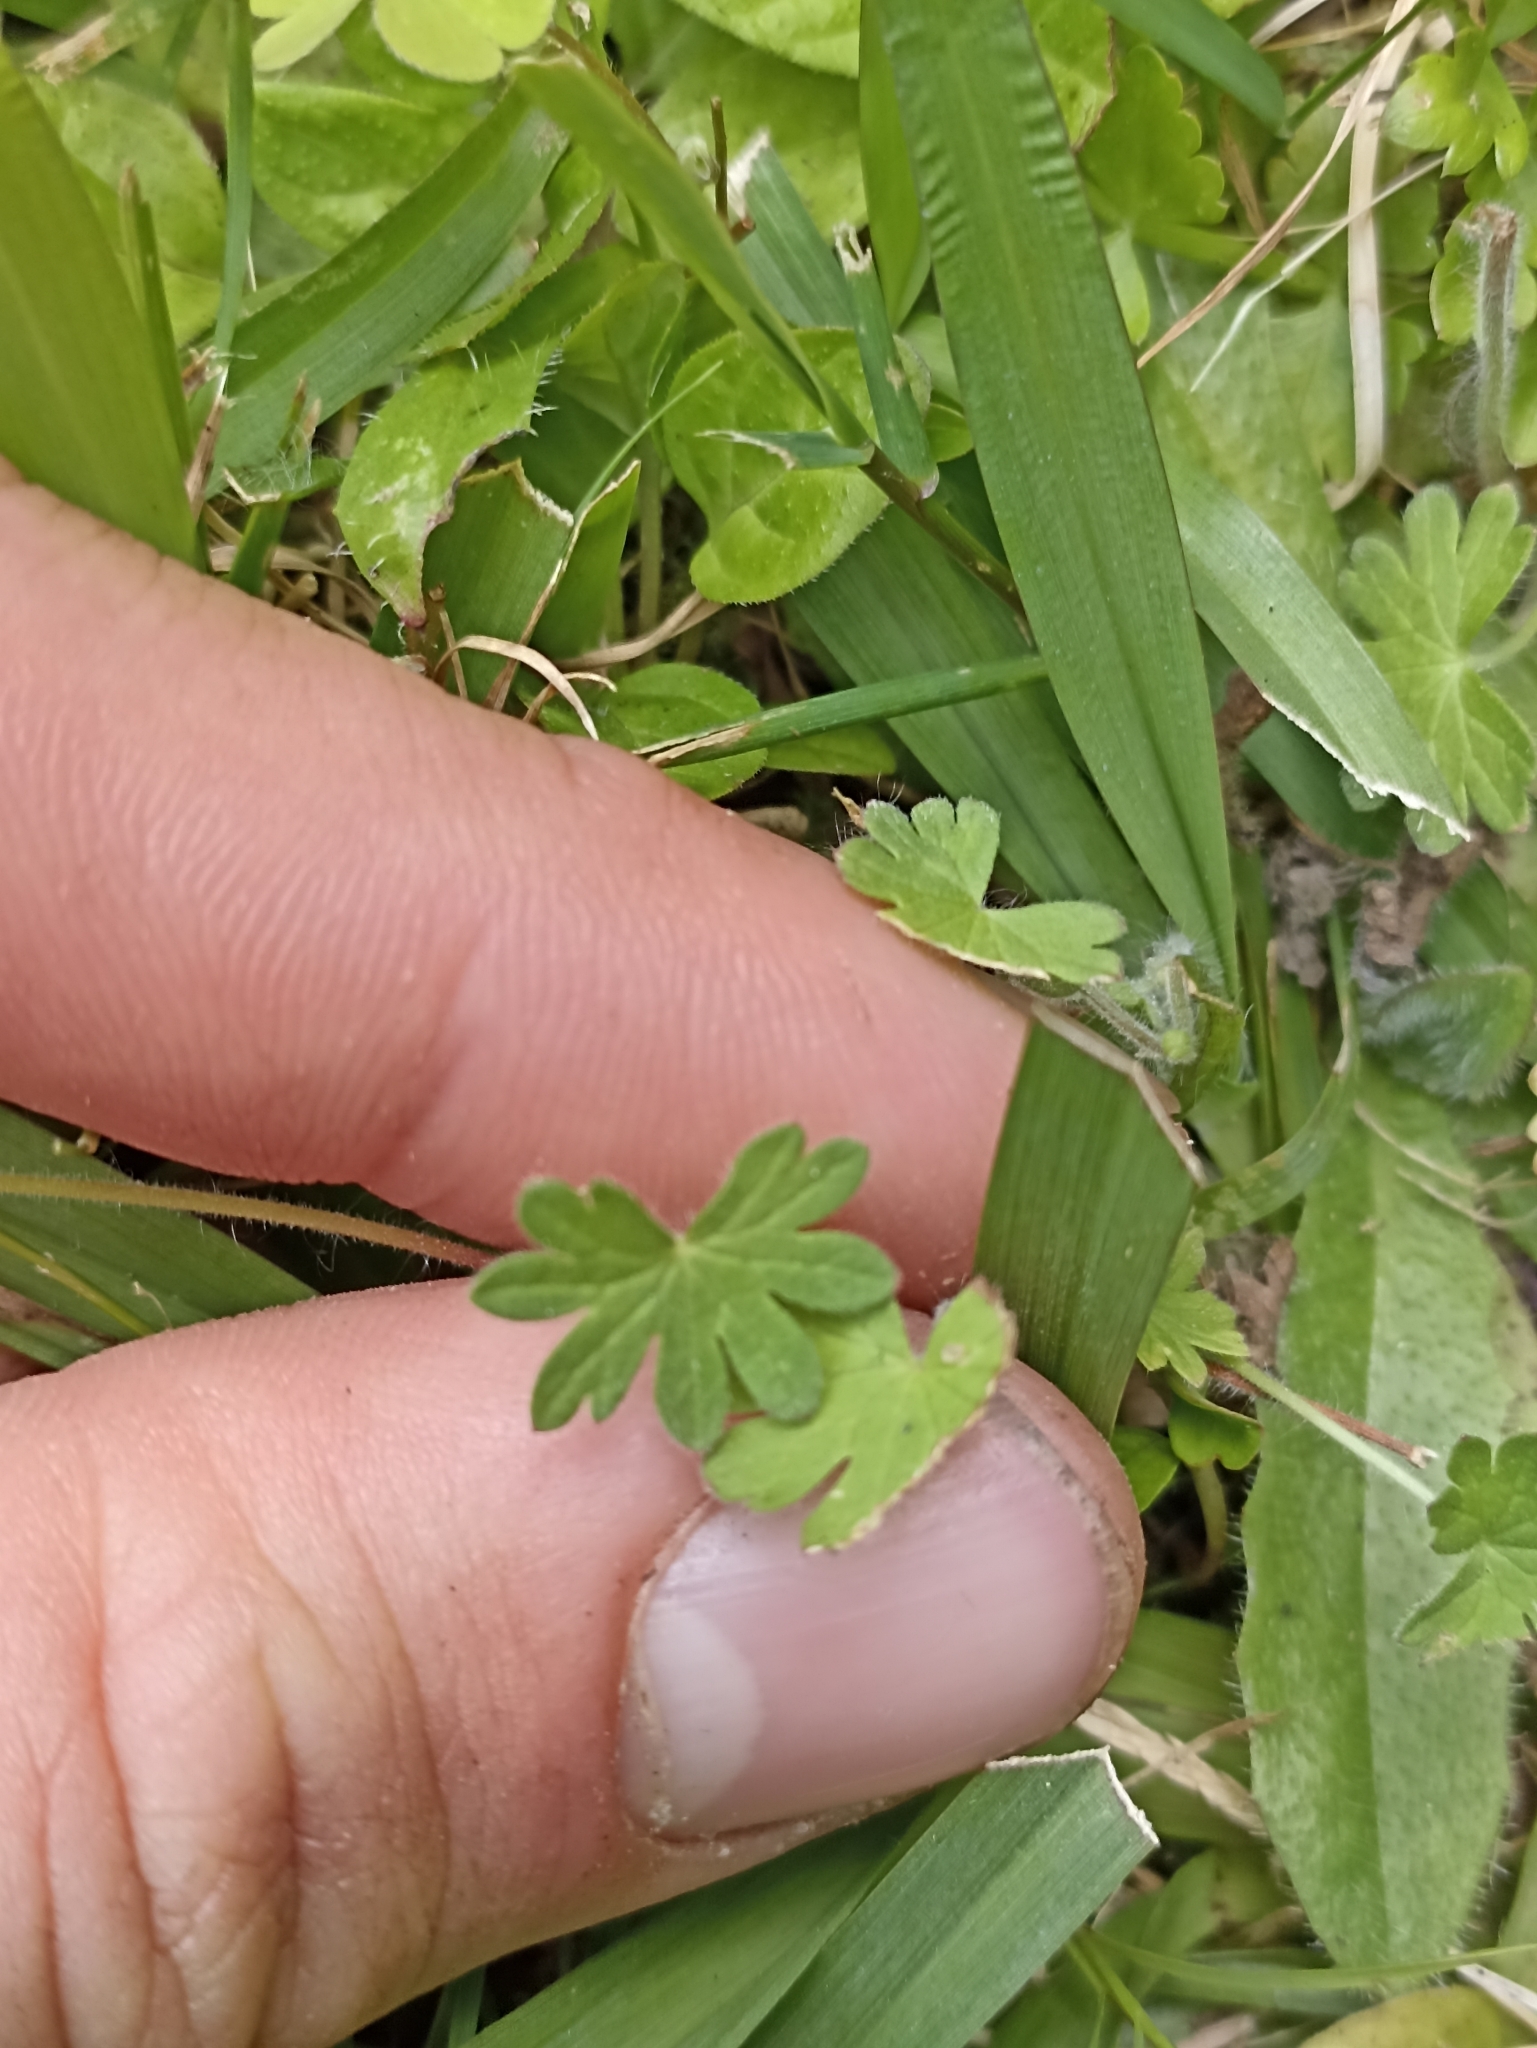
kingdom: Plantae
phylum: Tracheophyta
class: Magnoliopsida
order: Geraniales
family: Geraniaceae
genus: Geranium
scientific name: Geranium molle
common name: Dove's-foot crane's-bill
